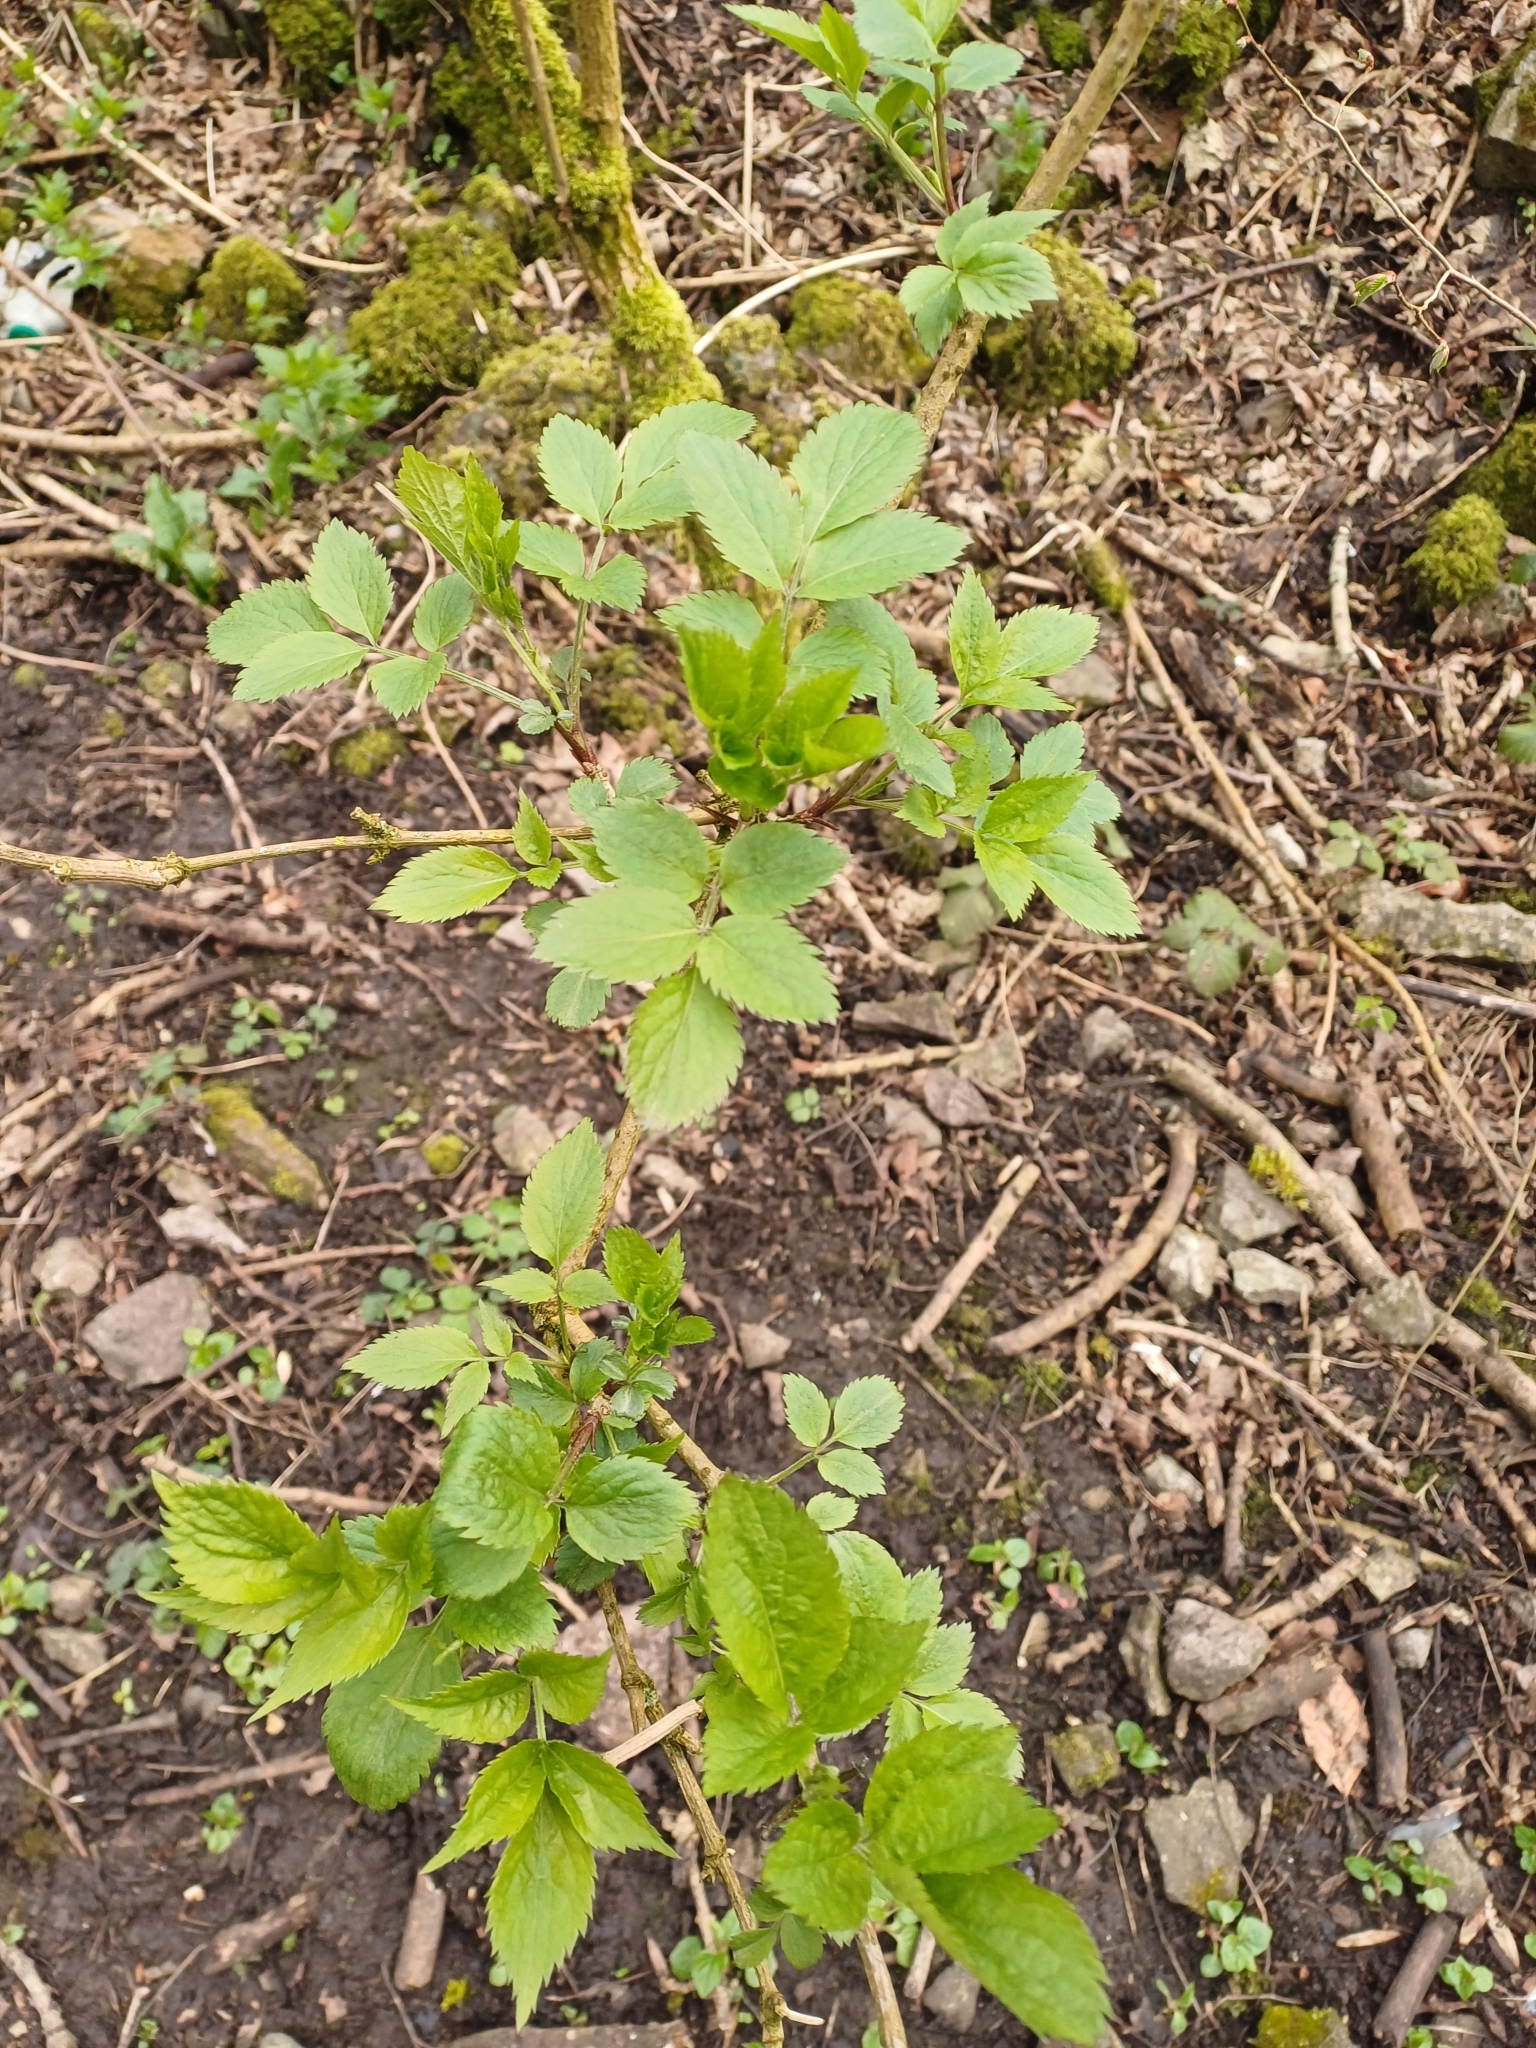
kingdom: Plantae
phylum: Tracheophyta
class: Magnoliopsida
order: Dipsacales
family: Viburnaceae
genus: Sambucus
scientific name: Sambucus nigra
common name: Elder
